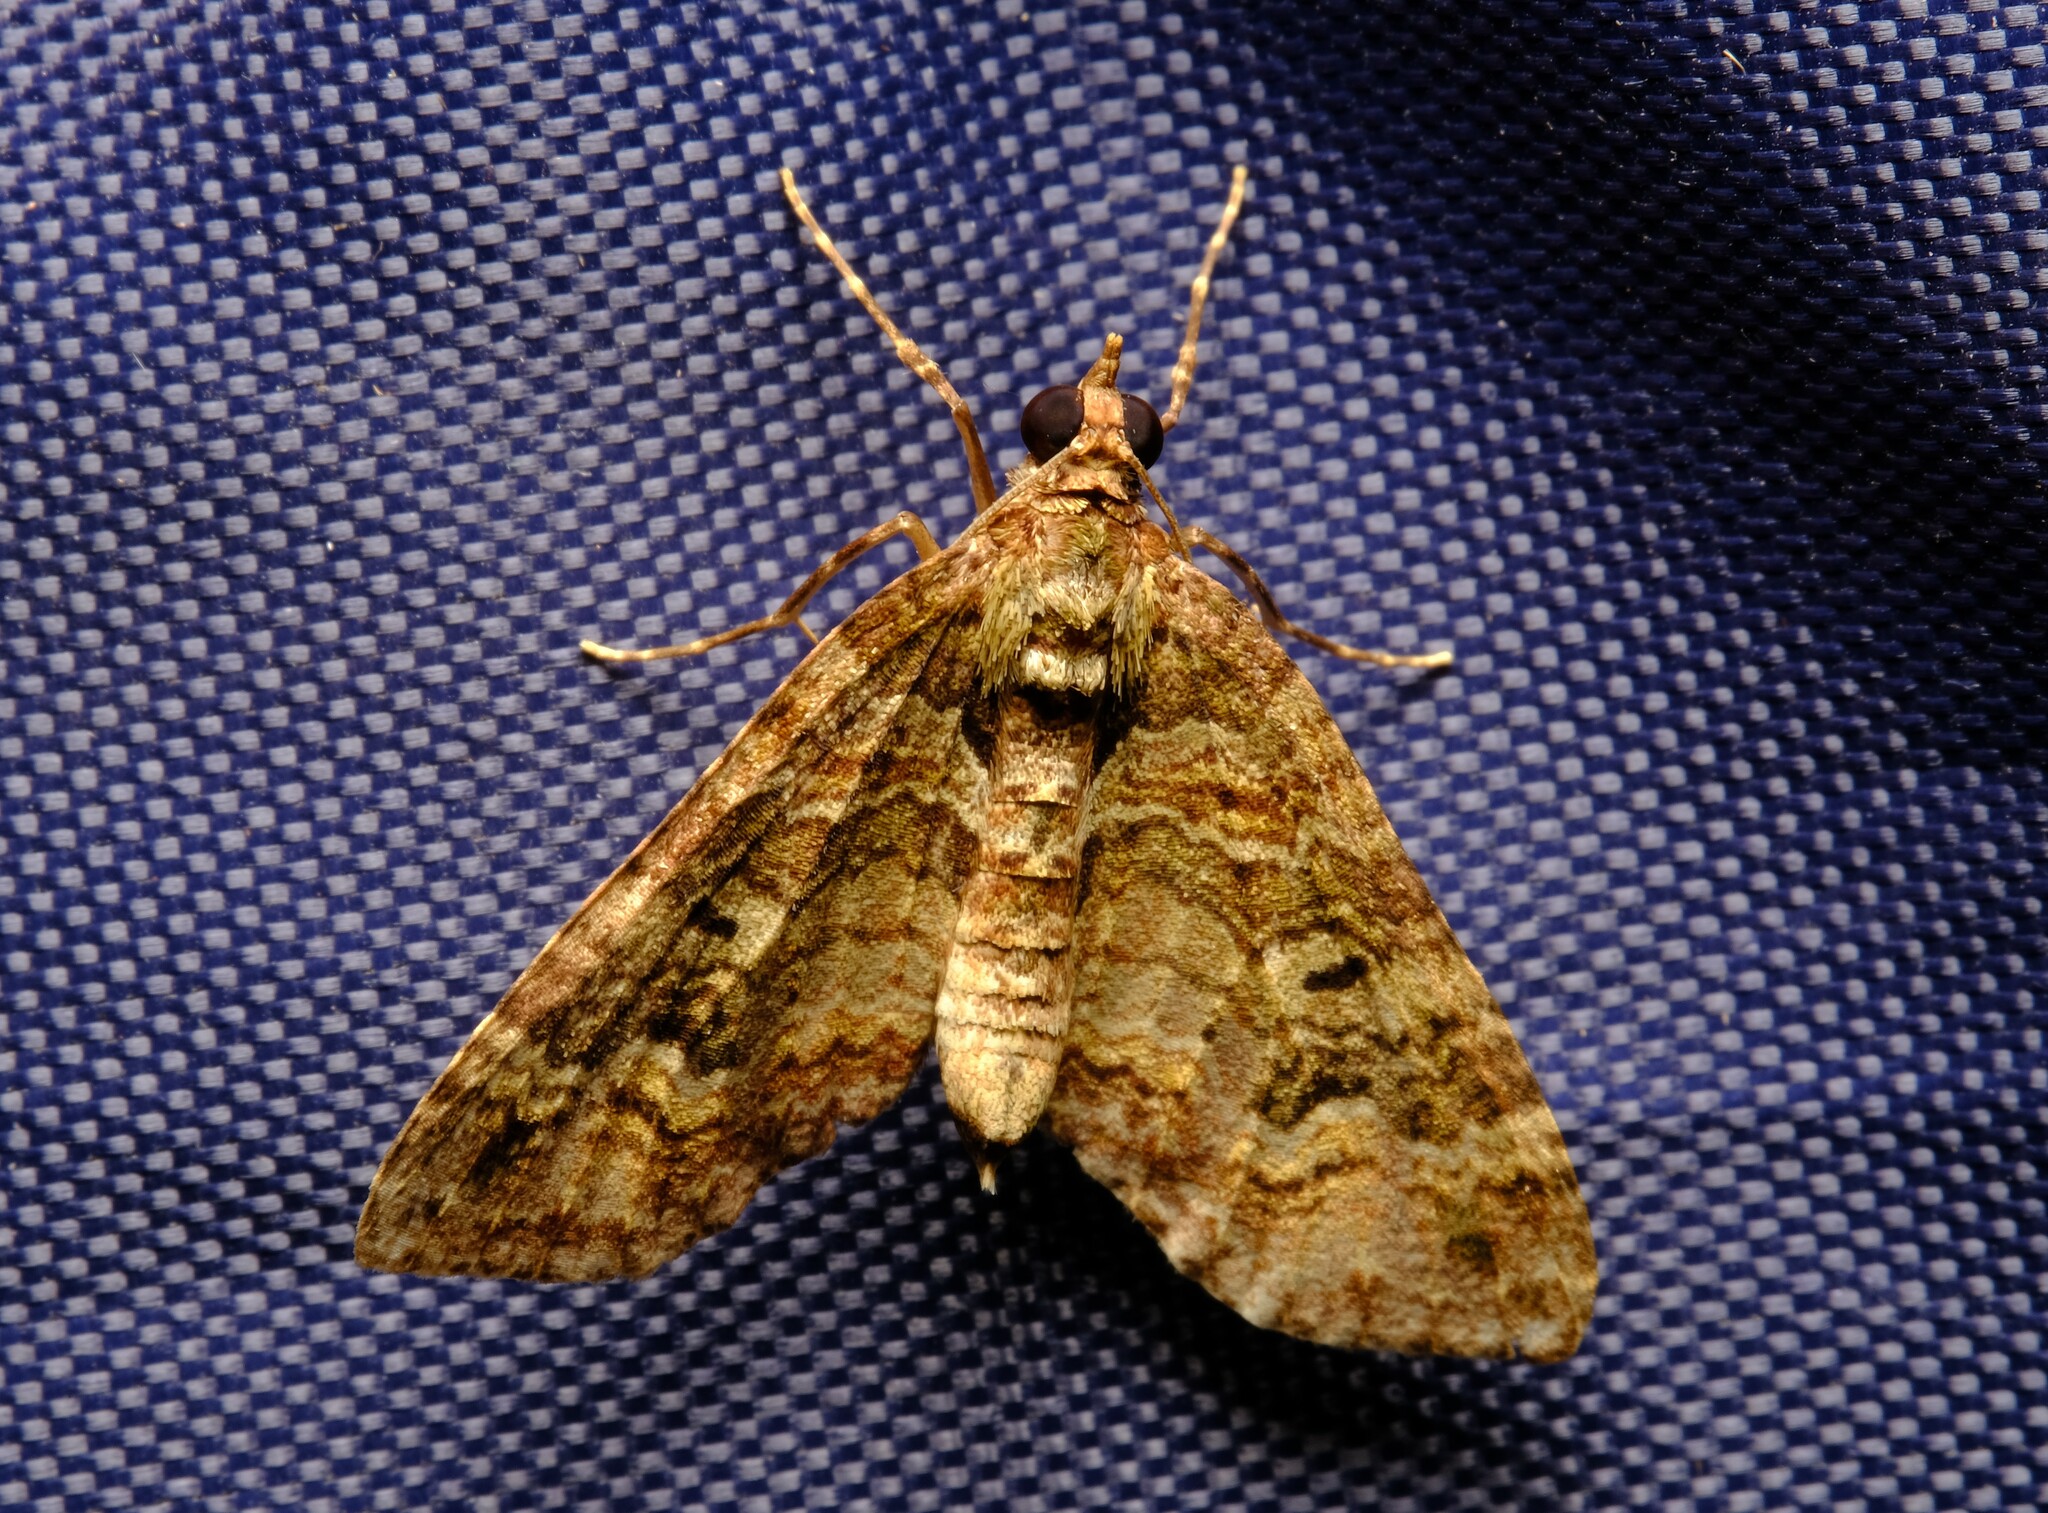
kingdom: Animalia
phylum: Arthropoda
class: Insecta
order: Lepidoptera
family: Geometridae
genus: Crasilogia
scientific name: Crasilogia gressitti
